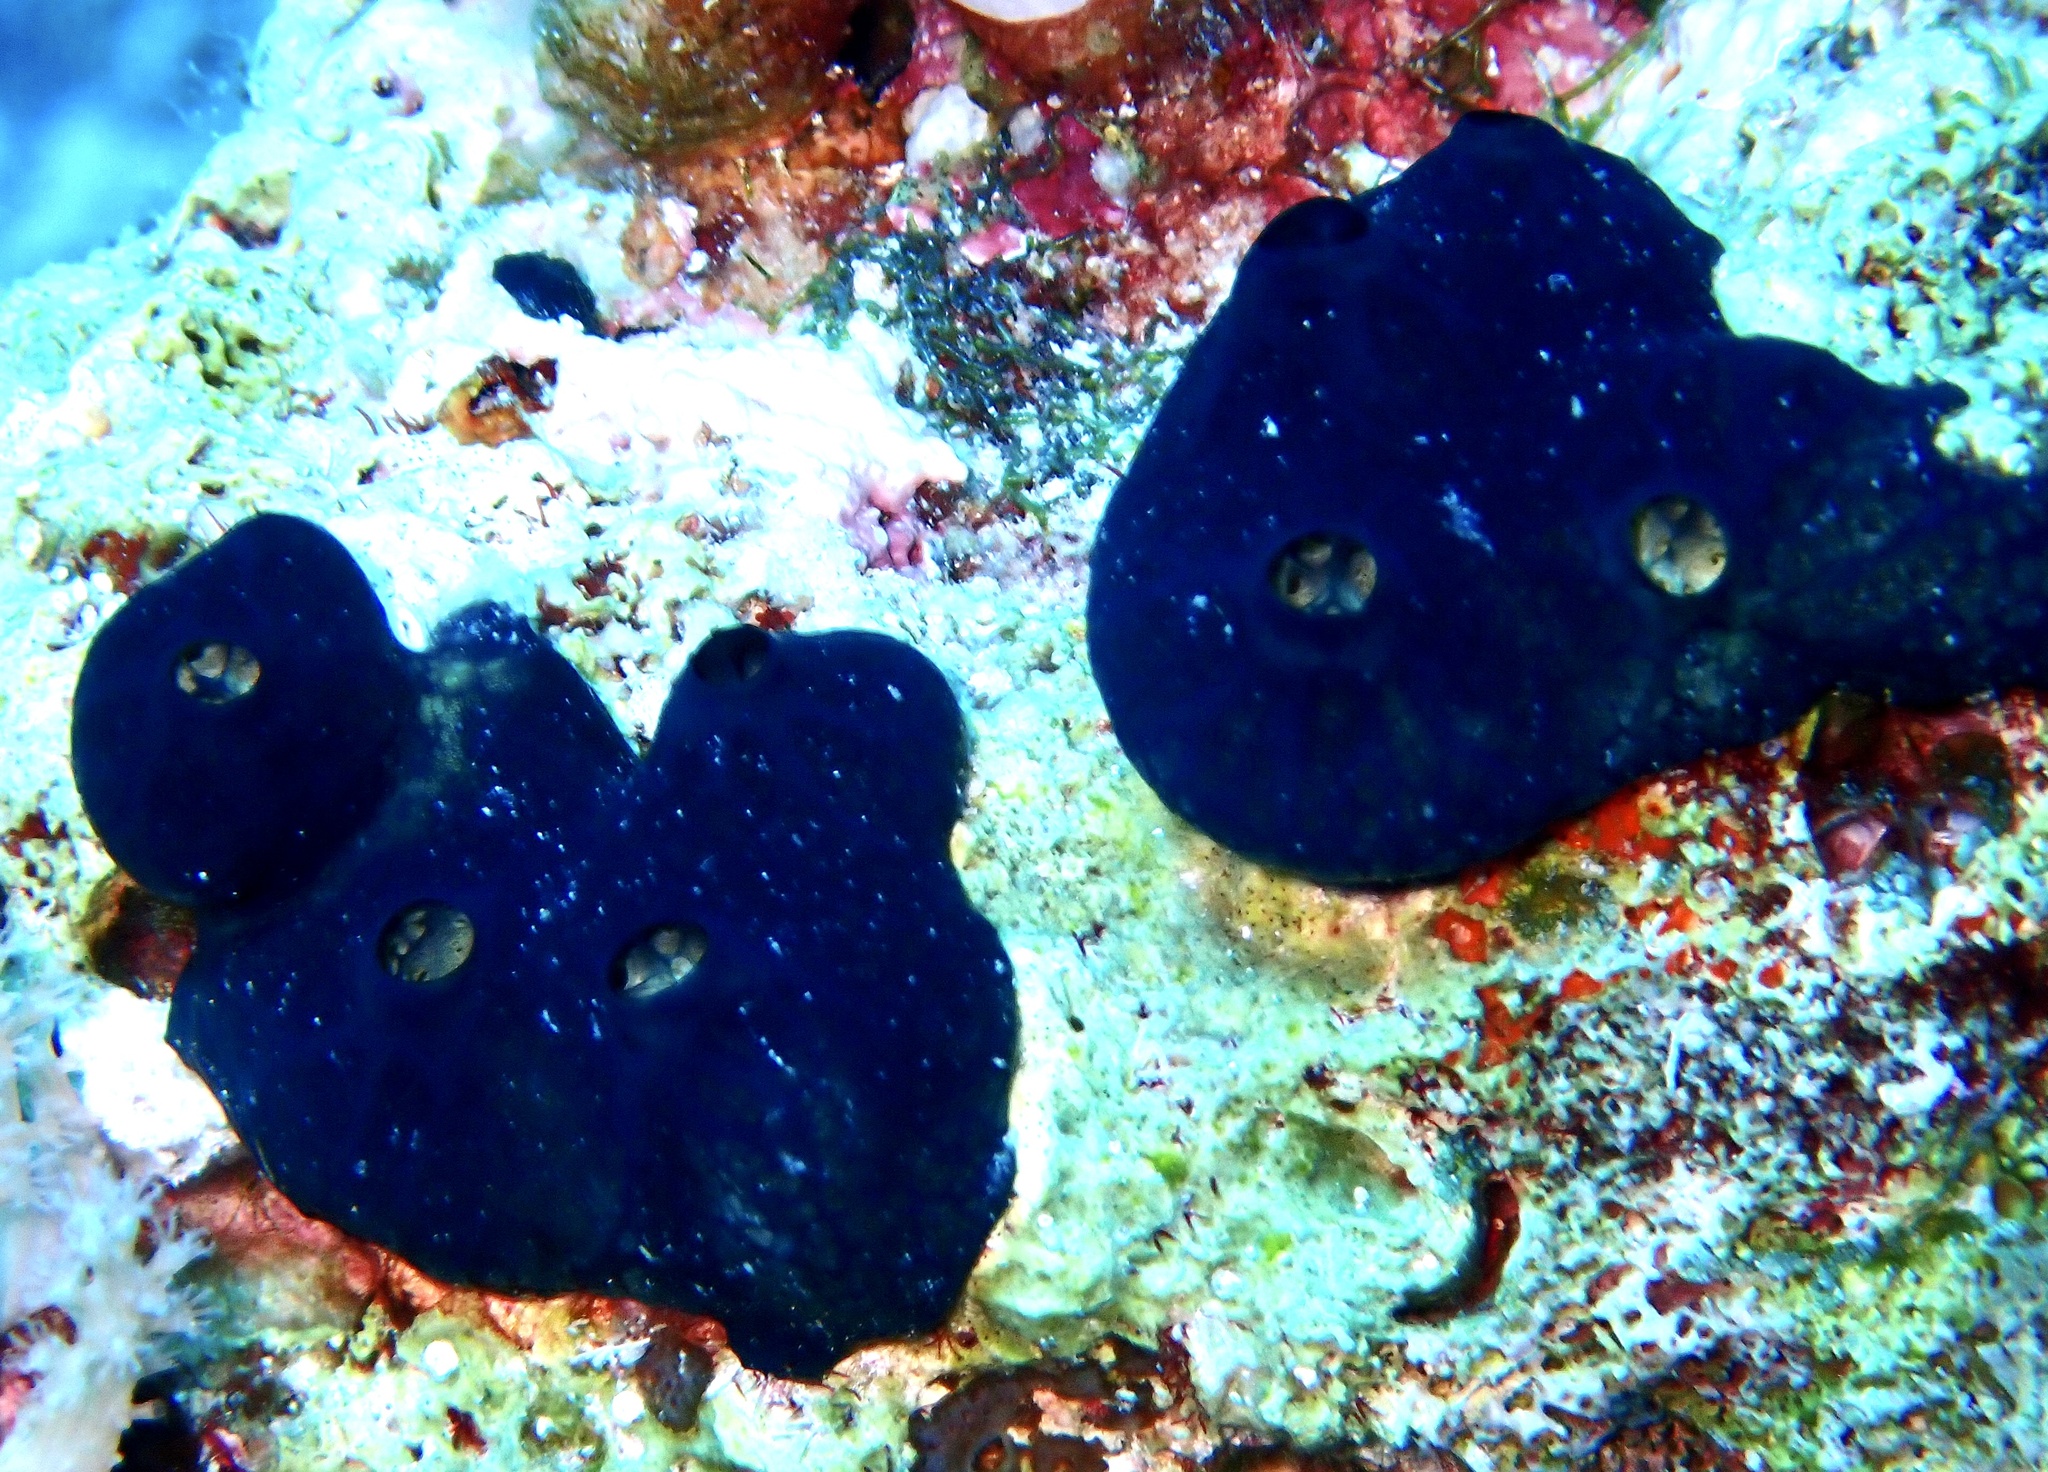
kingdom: Animalia
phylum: Porifera
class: Demospongiae
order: Poecilosclerida
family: Hymedesmiidae
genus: Hemimycale
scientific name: Hemimycale arabica
